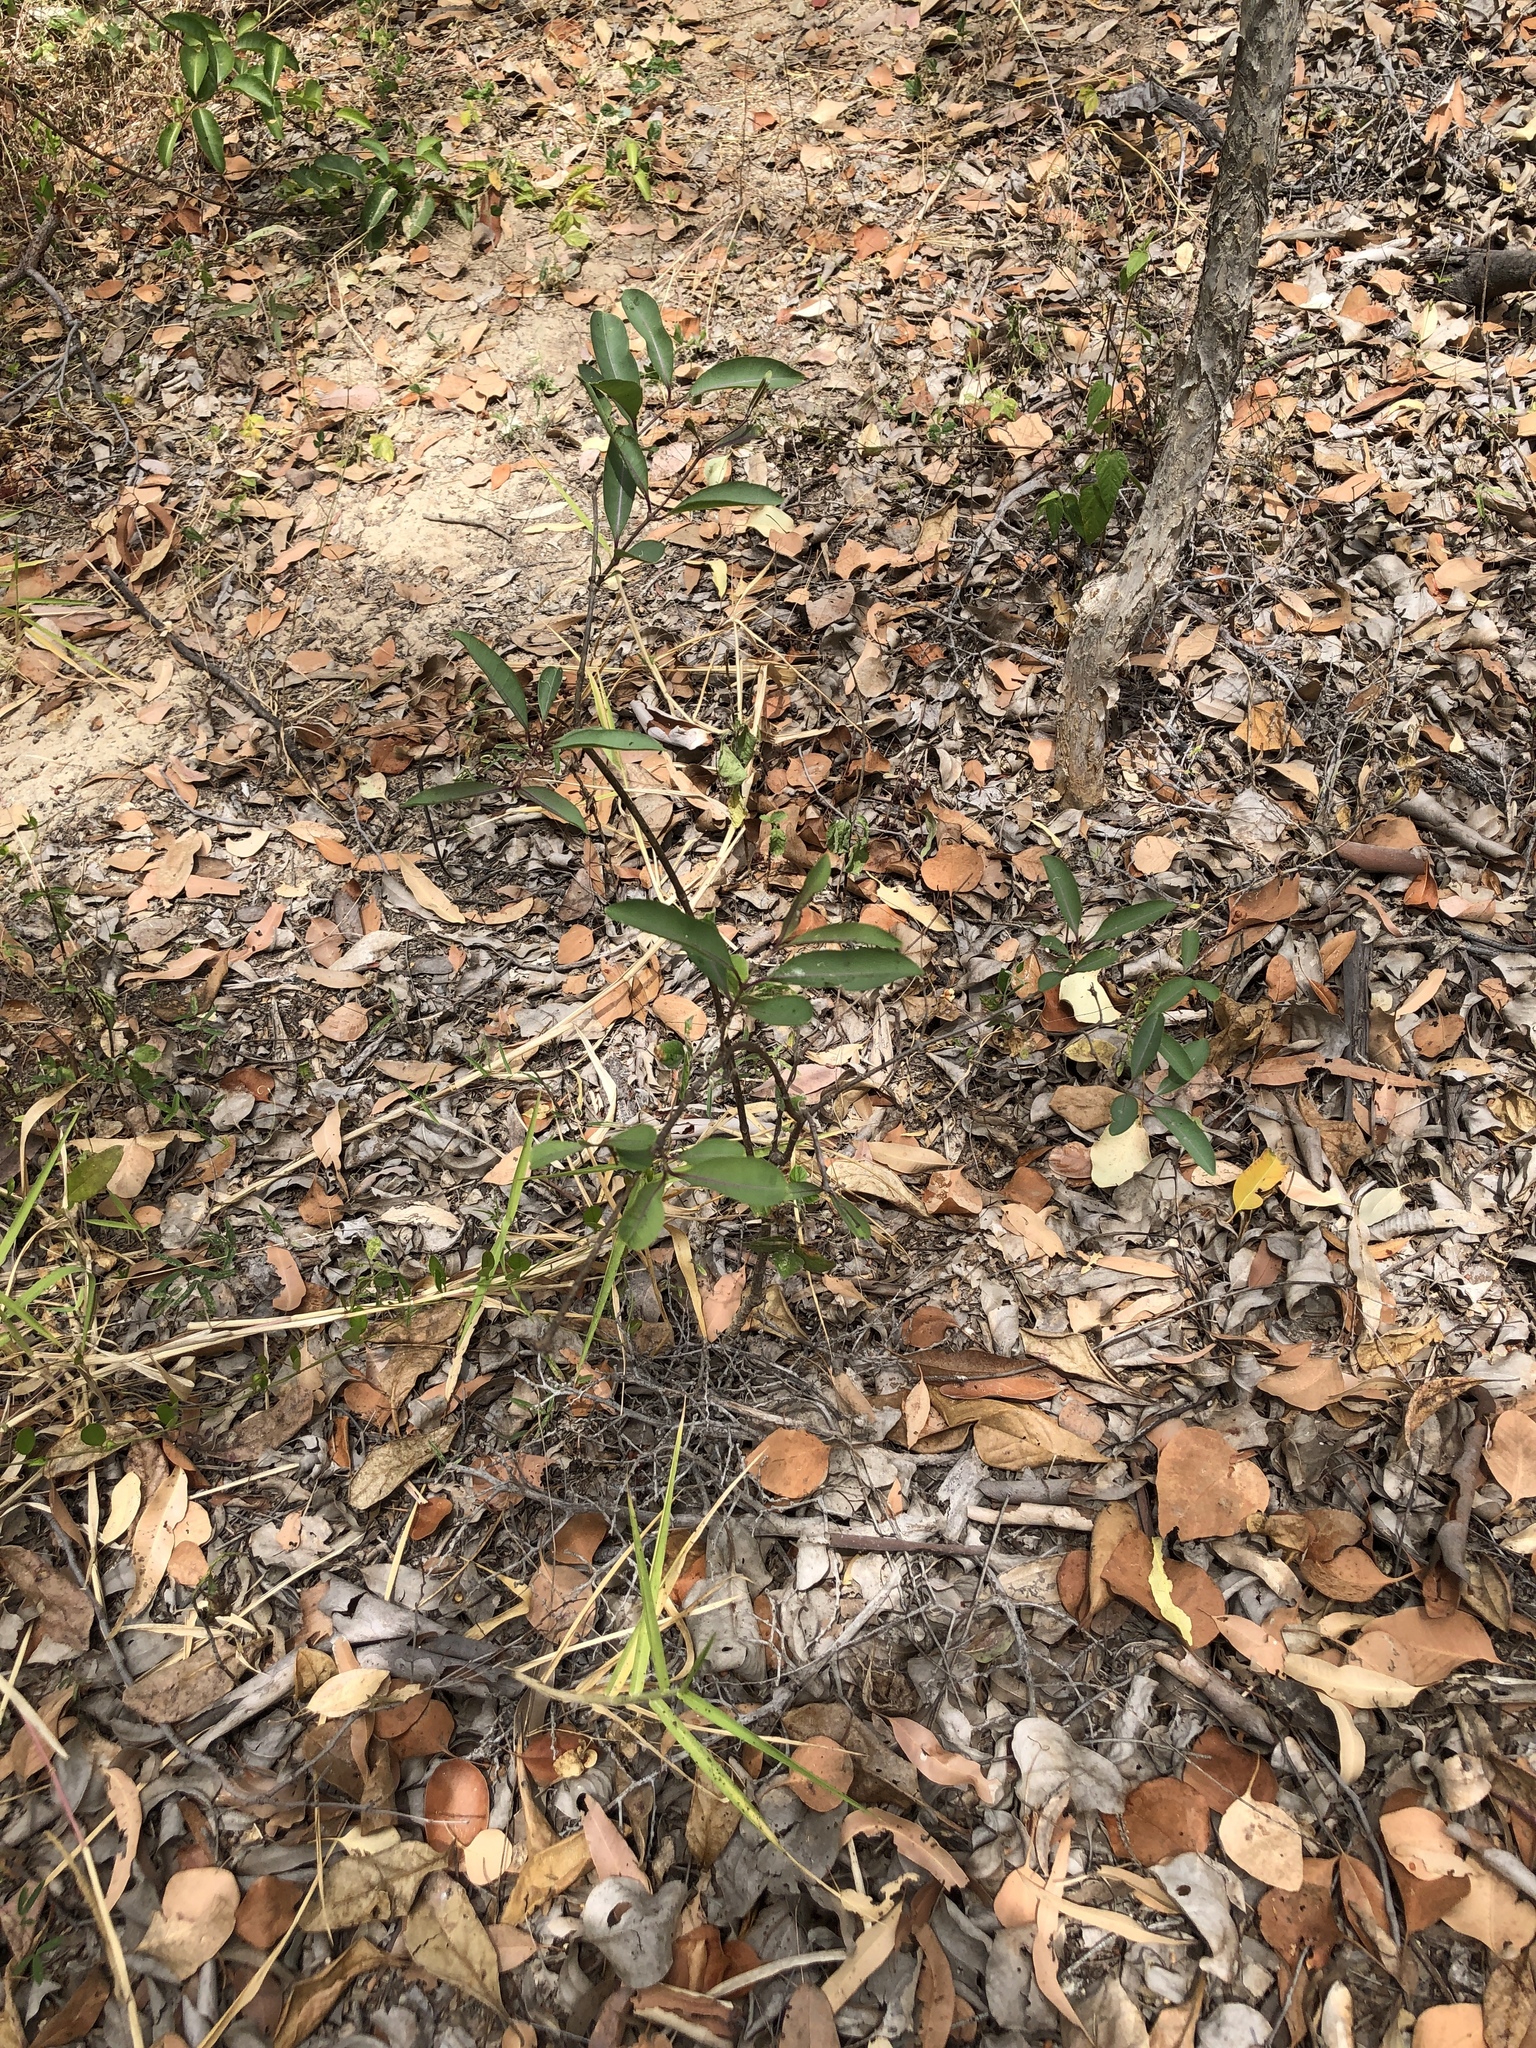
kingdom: Plantae
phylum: Tracheophyta
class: Magnoliopsida
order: Gentianales
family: Apocynaceae
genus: Cryptostegia
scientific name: Cryptostegia grandiflora
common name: Palay rubbervine
